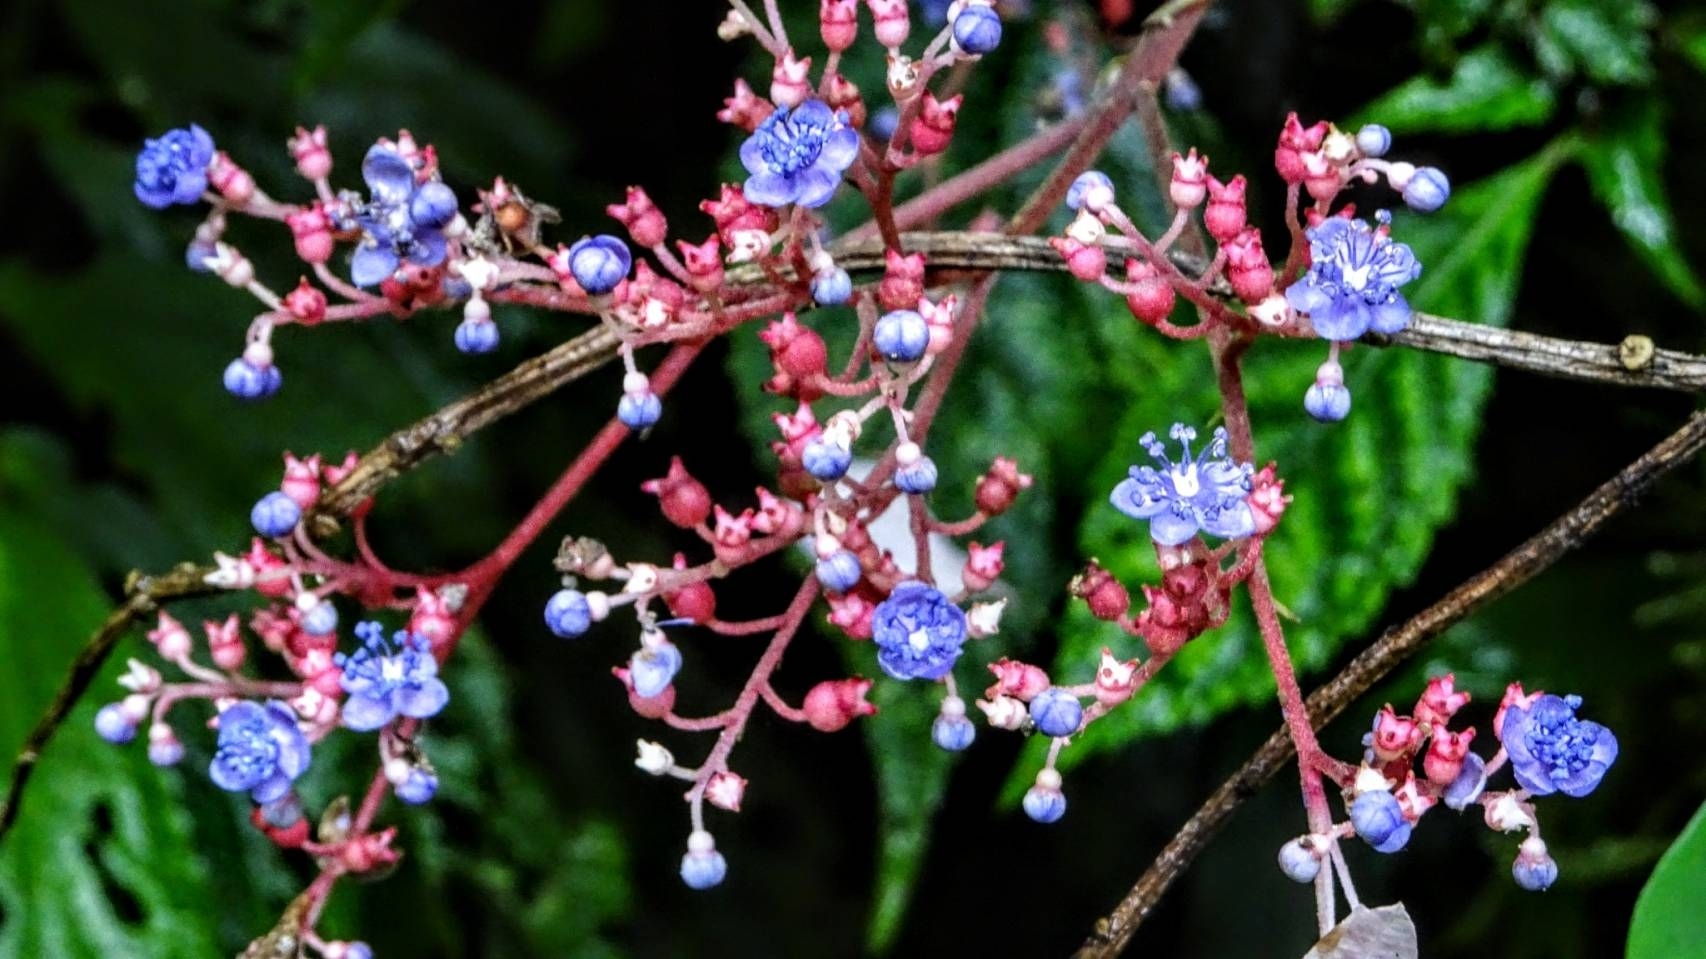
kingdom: Plantae
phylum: Tracheophyta
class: Magnoliopsida
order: Cornales
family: Hydrangeaceae
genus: Hydrangea
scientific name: Hydrangea densifolia
